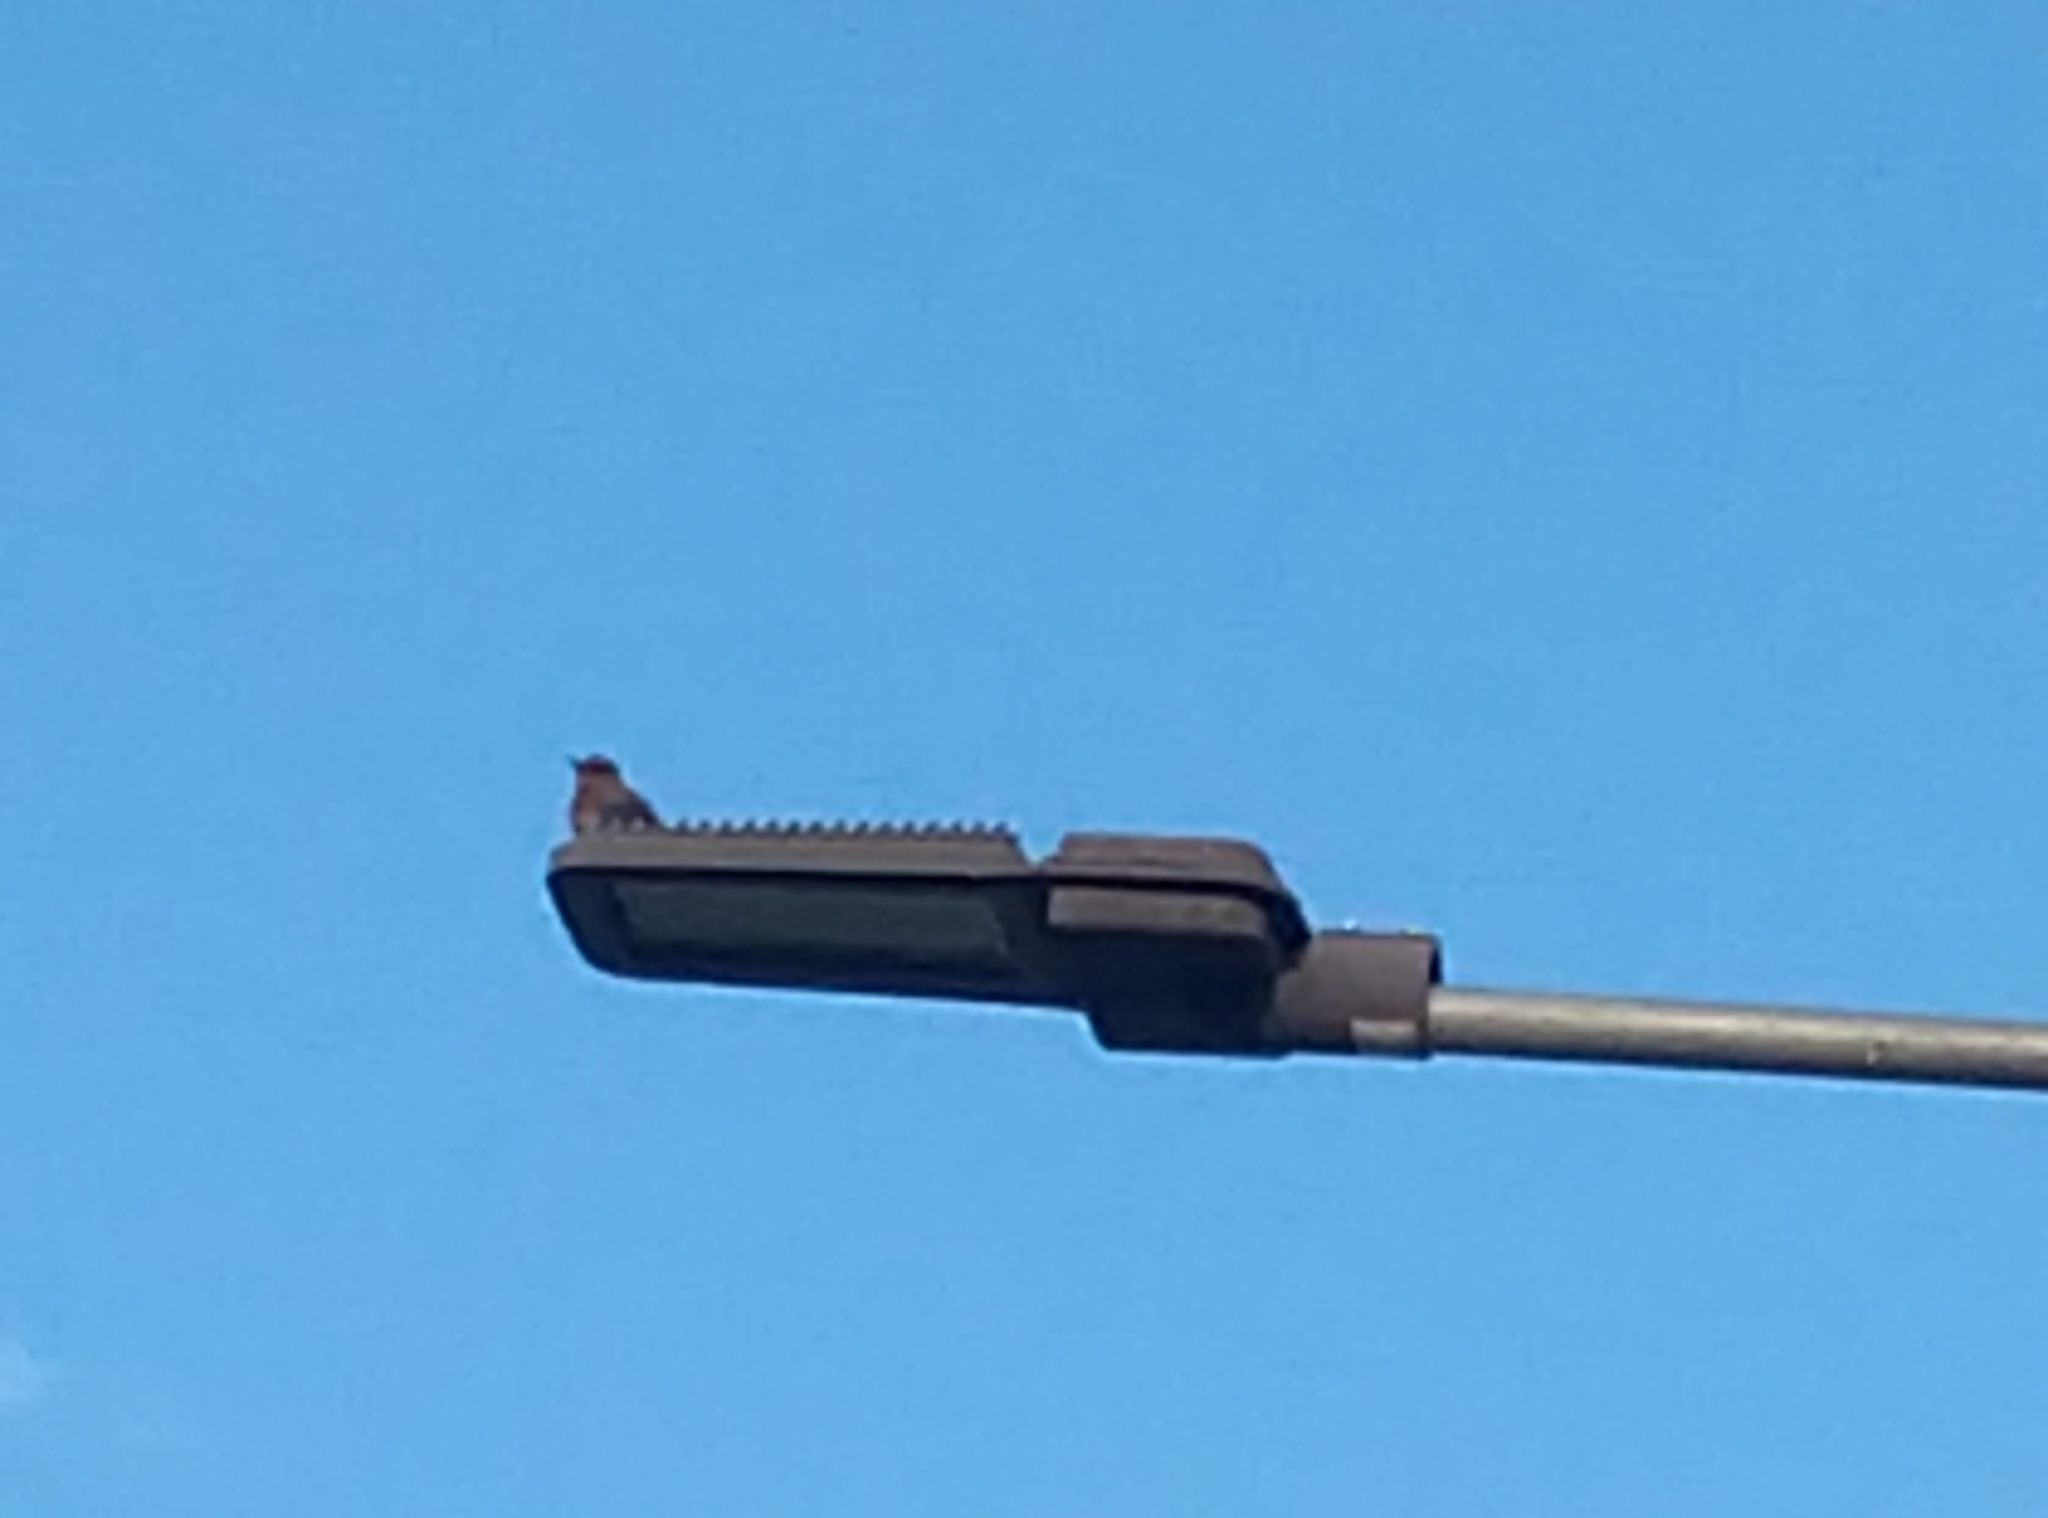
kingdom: Animalia
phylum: Chordata
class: Aves
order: Passeriformes
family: Muscicapidae
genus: Oenanthe
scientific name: Oenanthe fusca
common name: Brown rock chat
